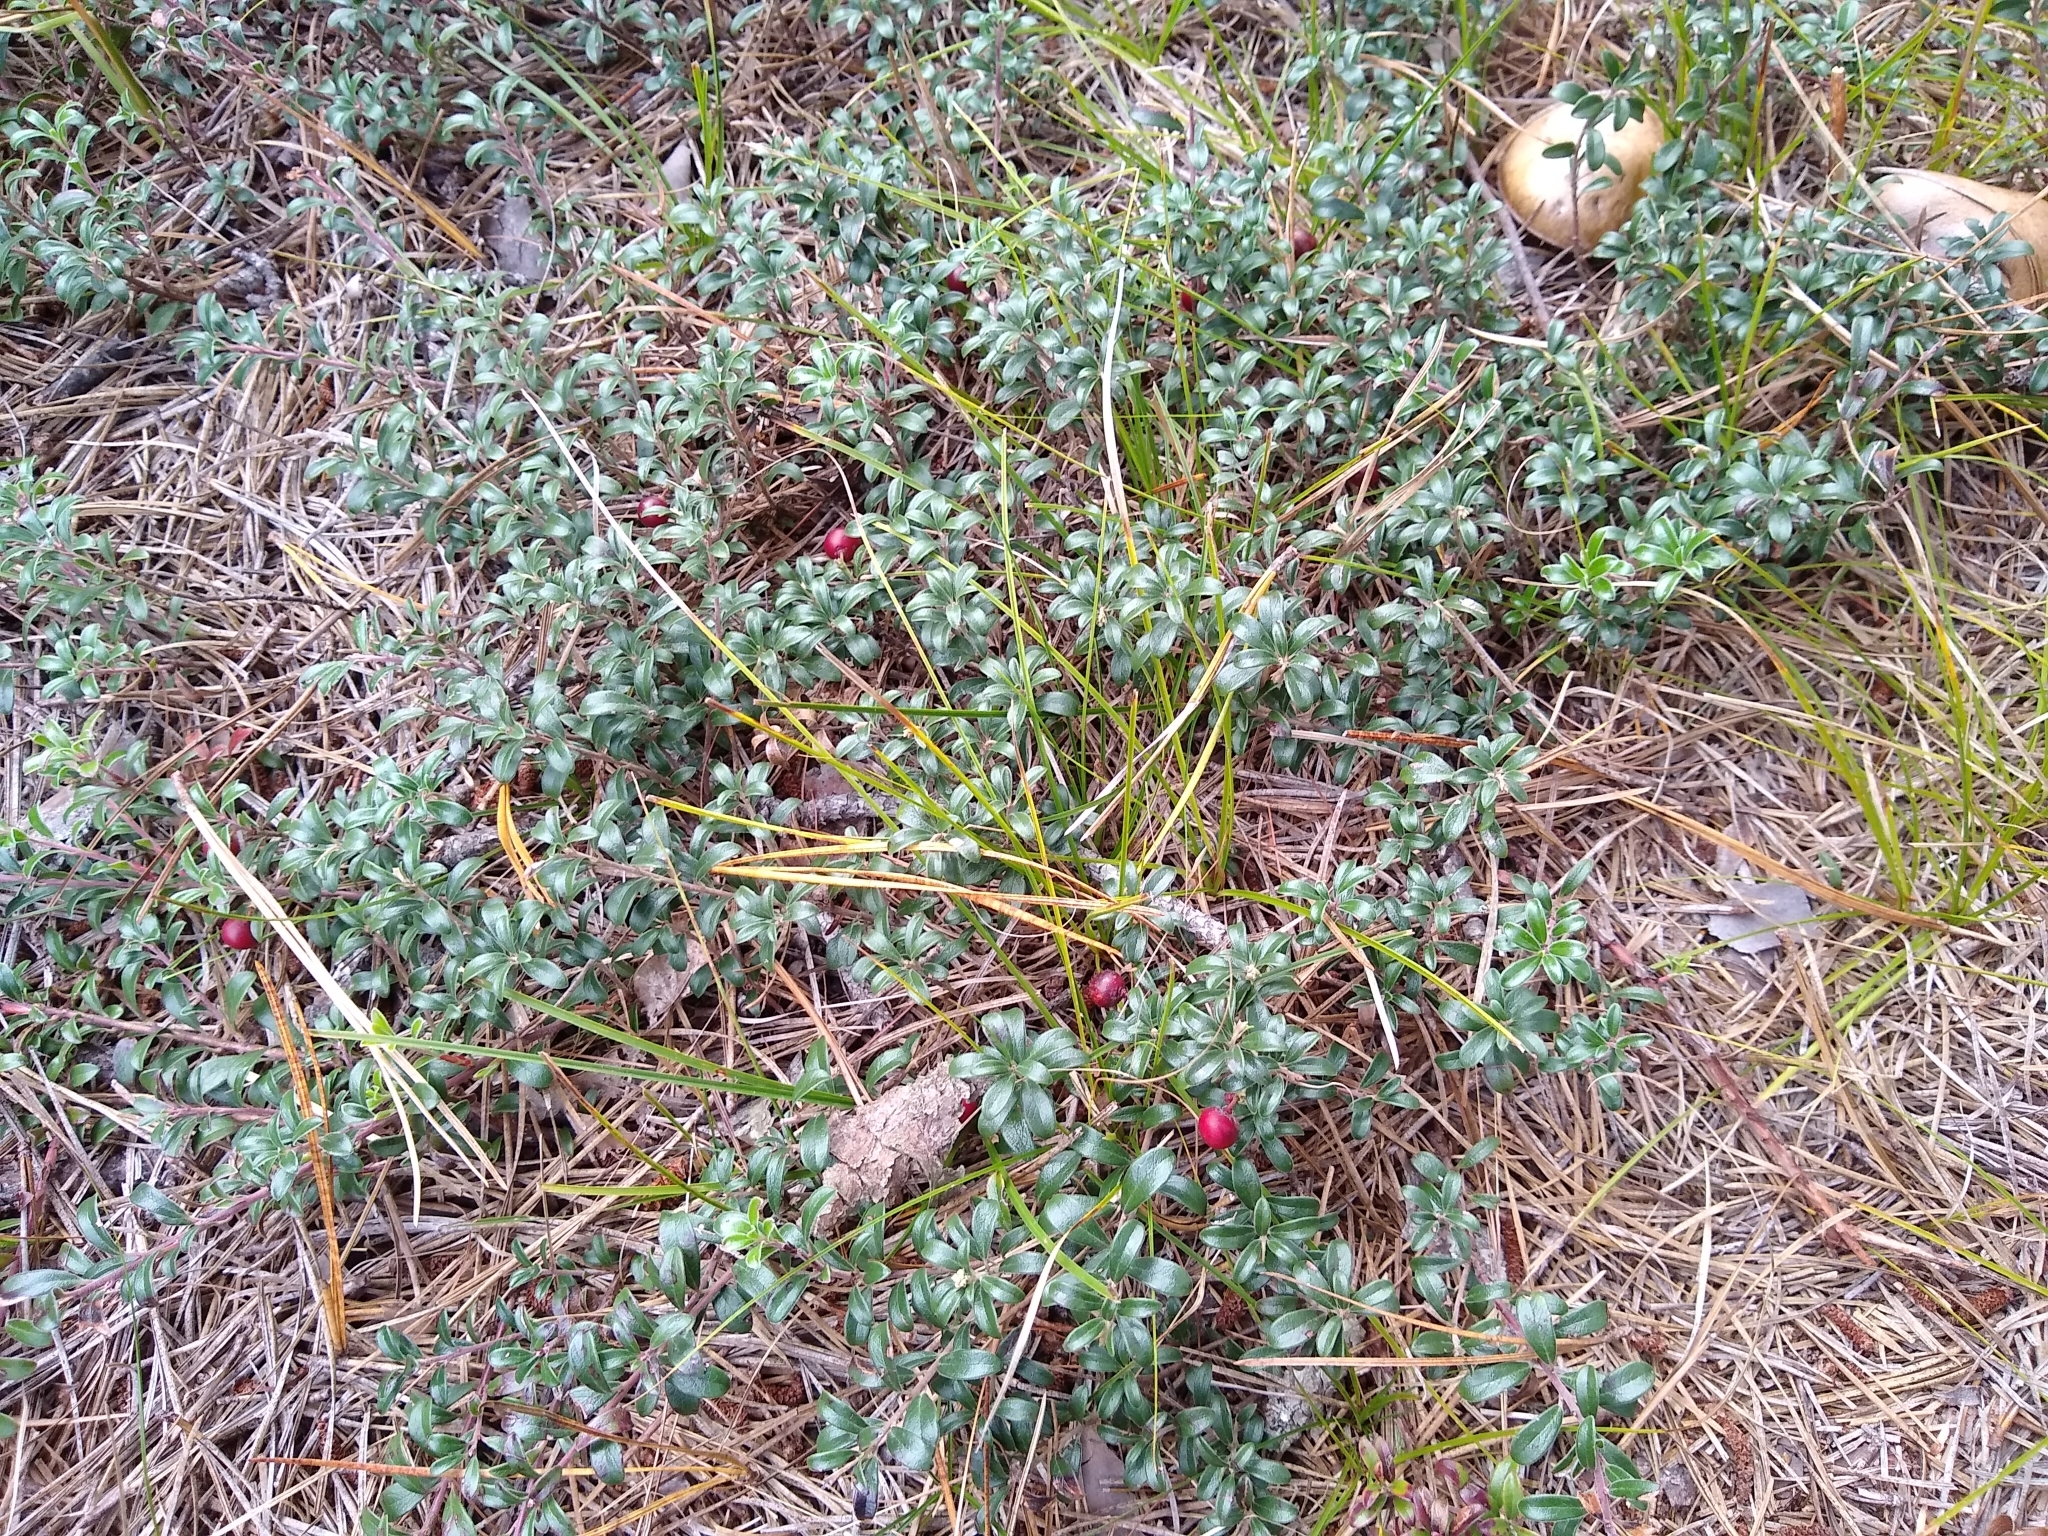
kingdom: Plantae
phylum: Tracheophyta
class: Magnoliopsida
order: Ericales
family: Ericaceae
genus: Arctostaphylos
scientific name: Arctostaphylos uva-ursi
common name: Bearberry
